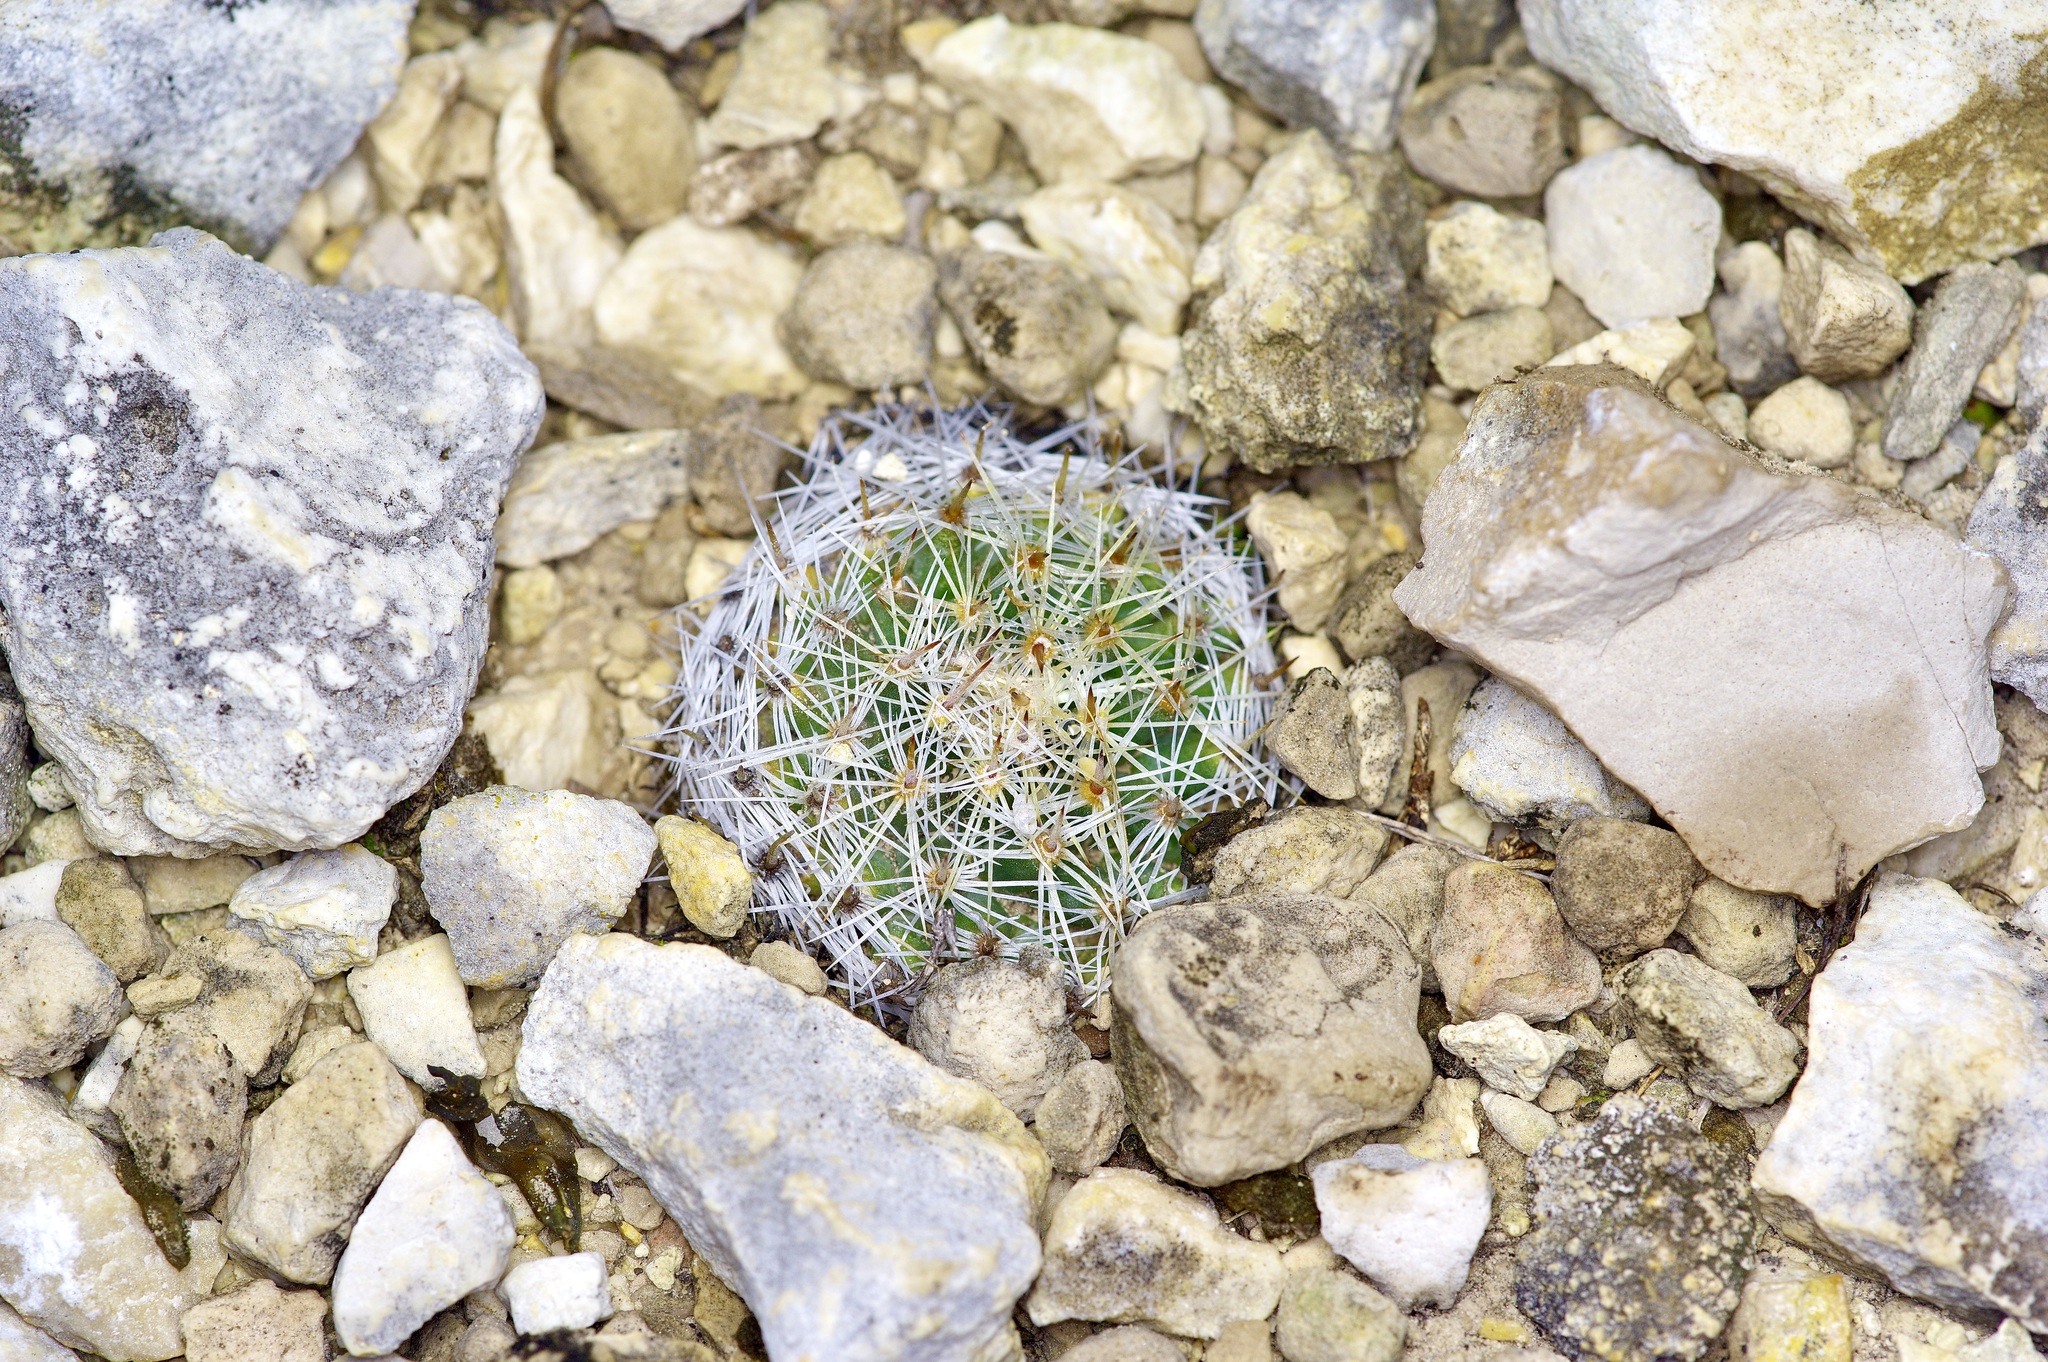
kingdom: Plantae
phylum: Tracheophyta
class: Magnoliopsida
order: Caryophyllales
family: Cactaceae
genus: Mammillaria
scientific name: Mammillaria heyderi
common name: Little nipple cactus
